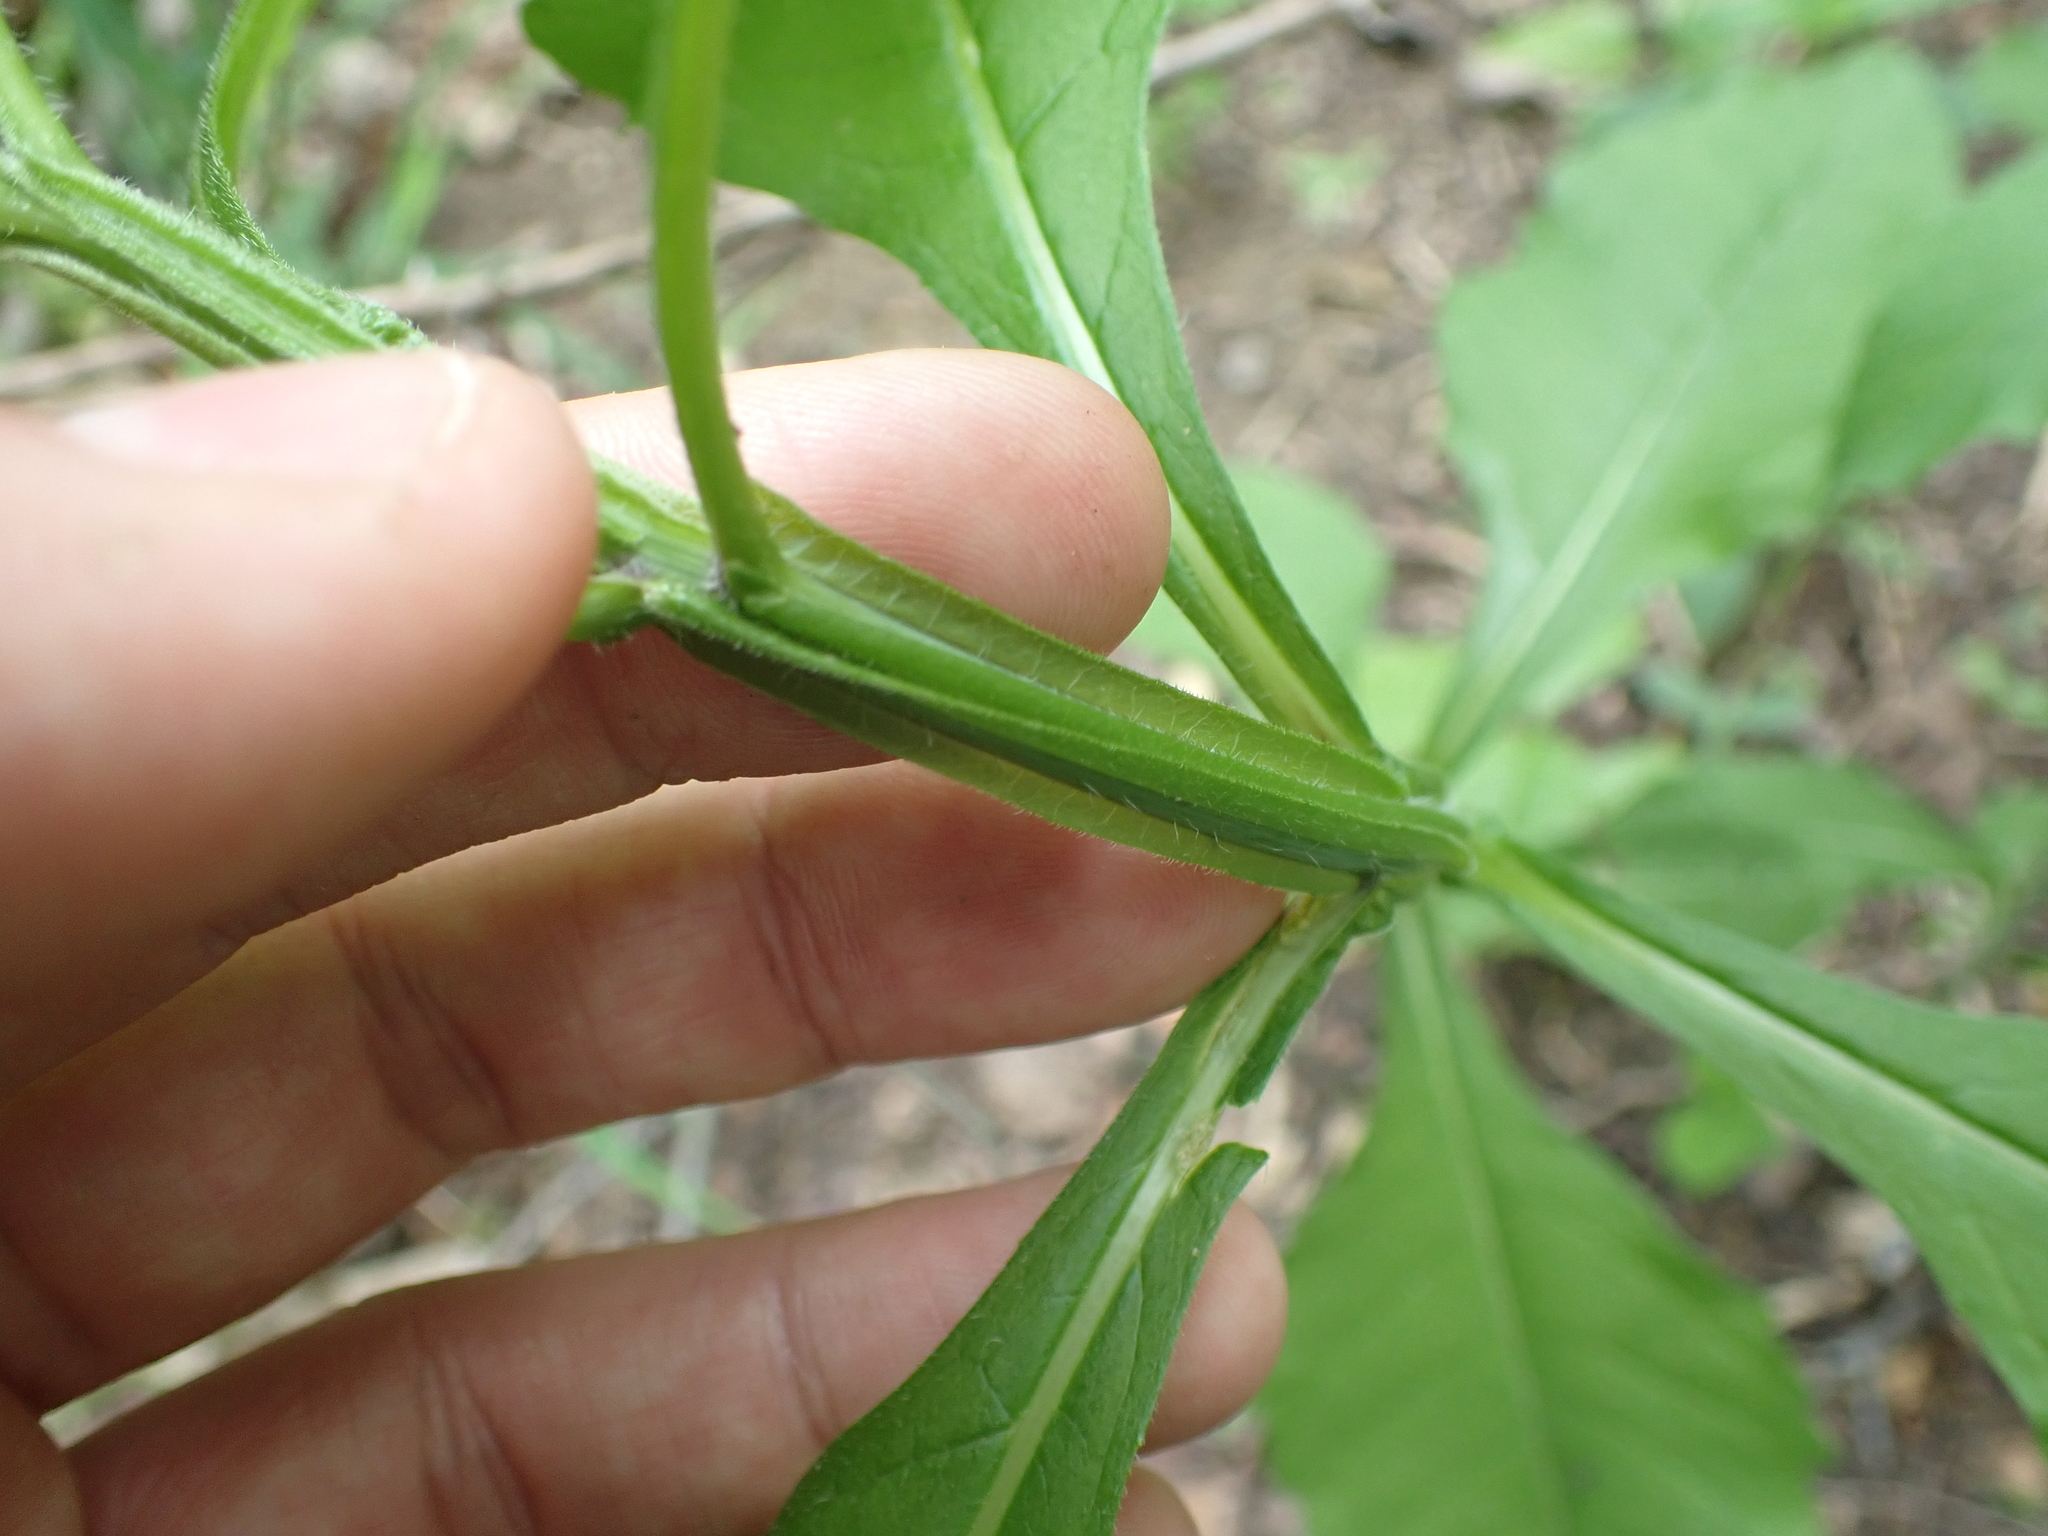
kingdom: Plantae
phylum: Tracheophyta
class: Magnoliopsida
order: Asterales
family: Asteraceae
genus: Verbesina
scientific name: Verbesina alternifolia
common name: Wingstem
